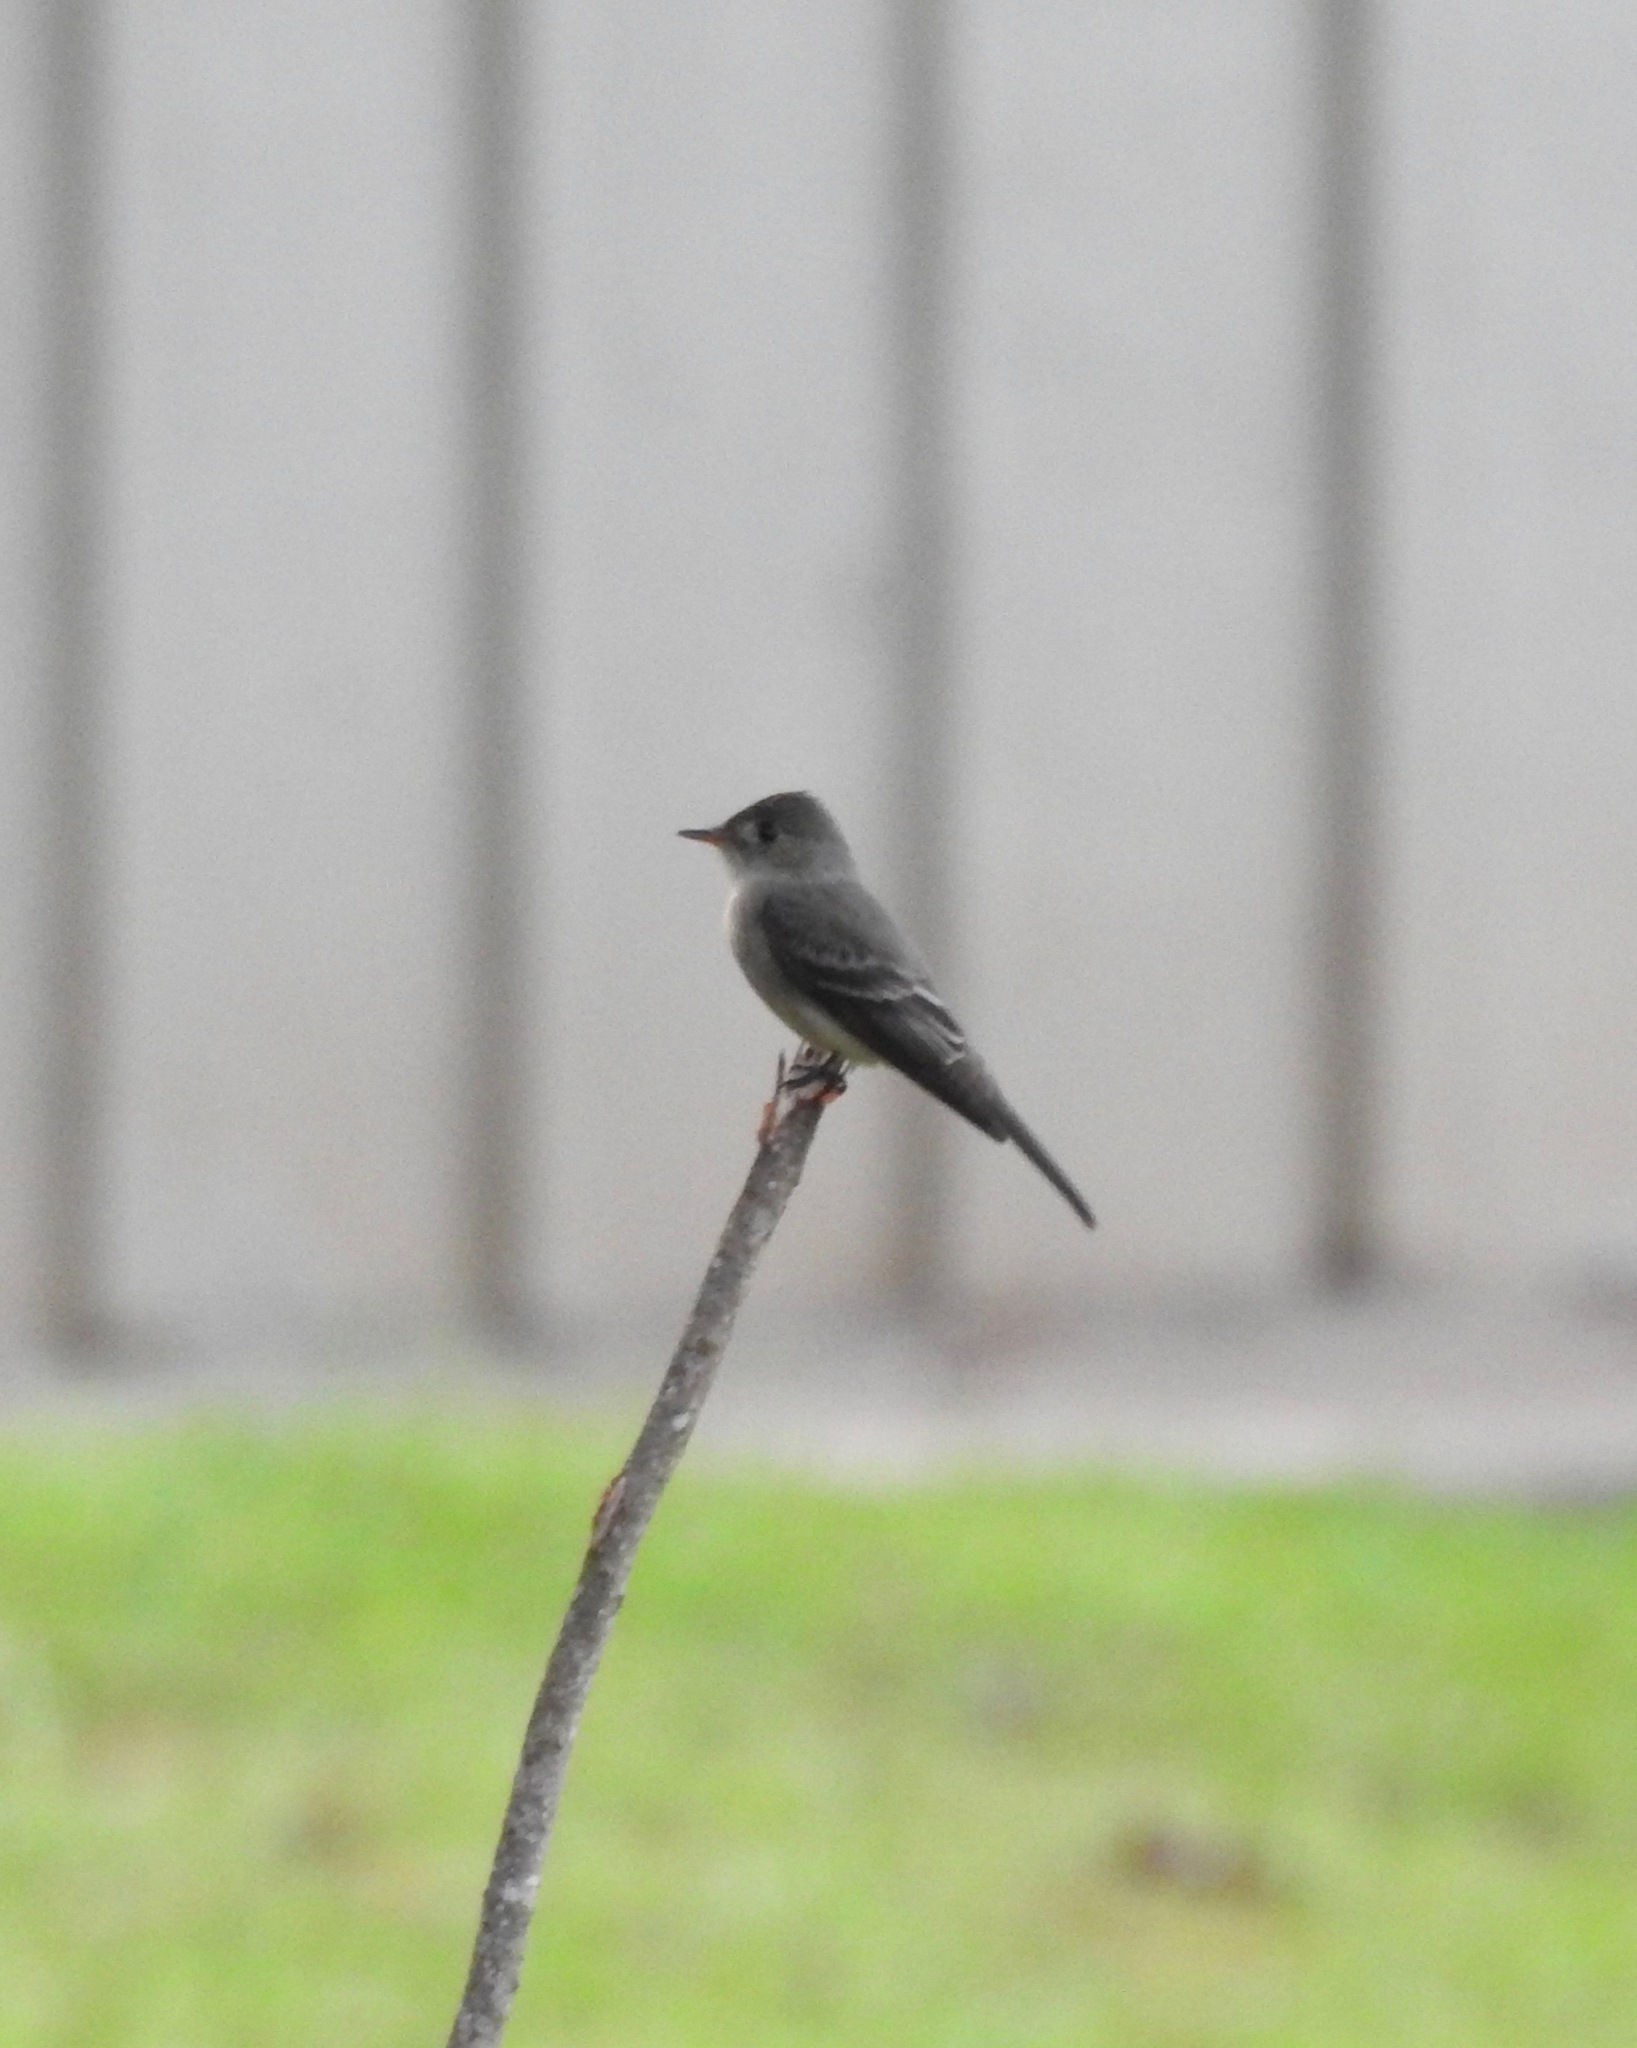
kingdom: Animalia
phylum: Chordata
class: Aves
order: Passeriformes
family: Tyrannidae
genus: Contopus
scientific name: Contopus virens
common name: Eastern wood-pewee
